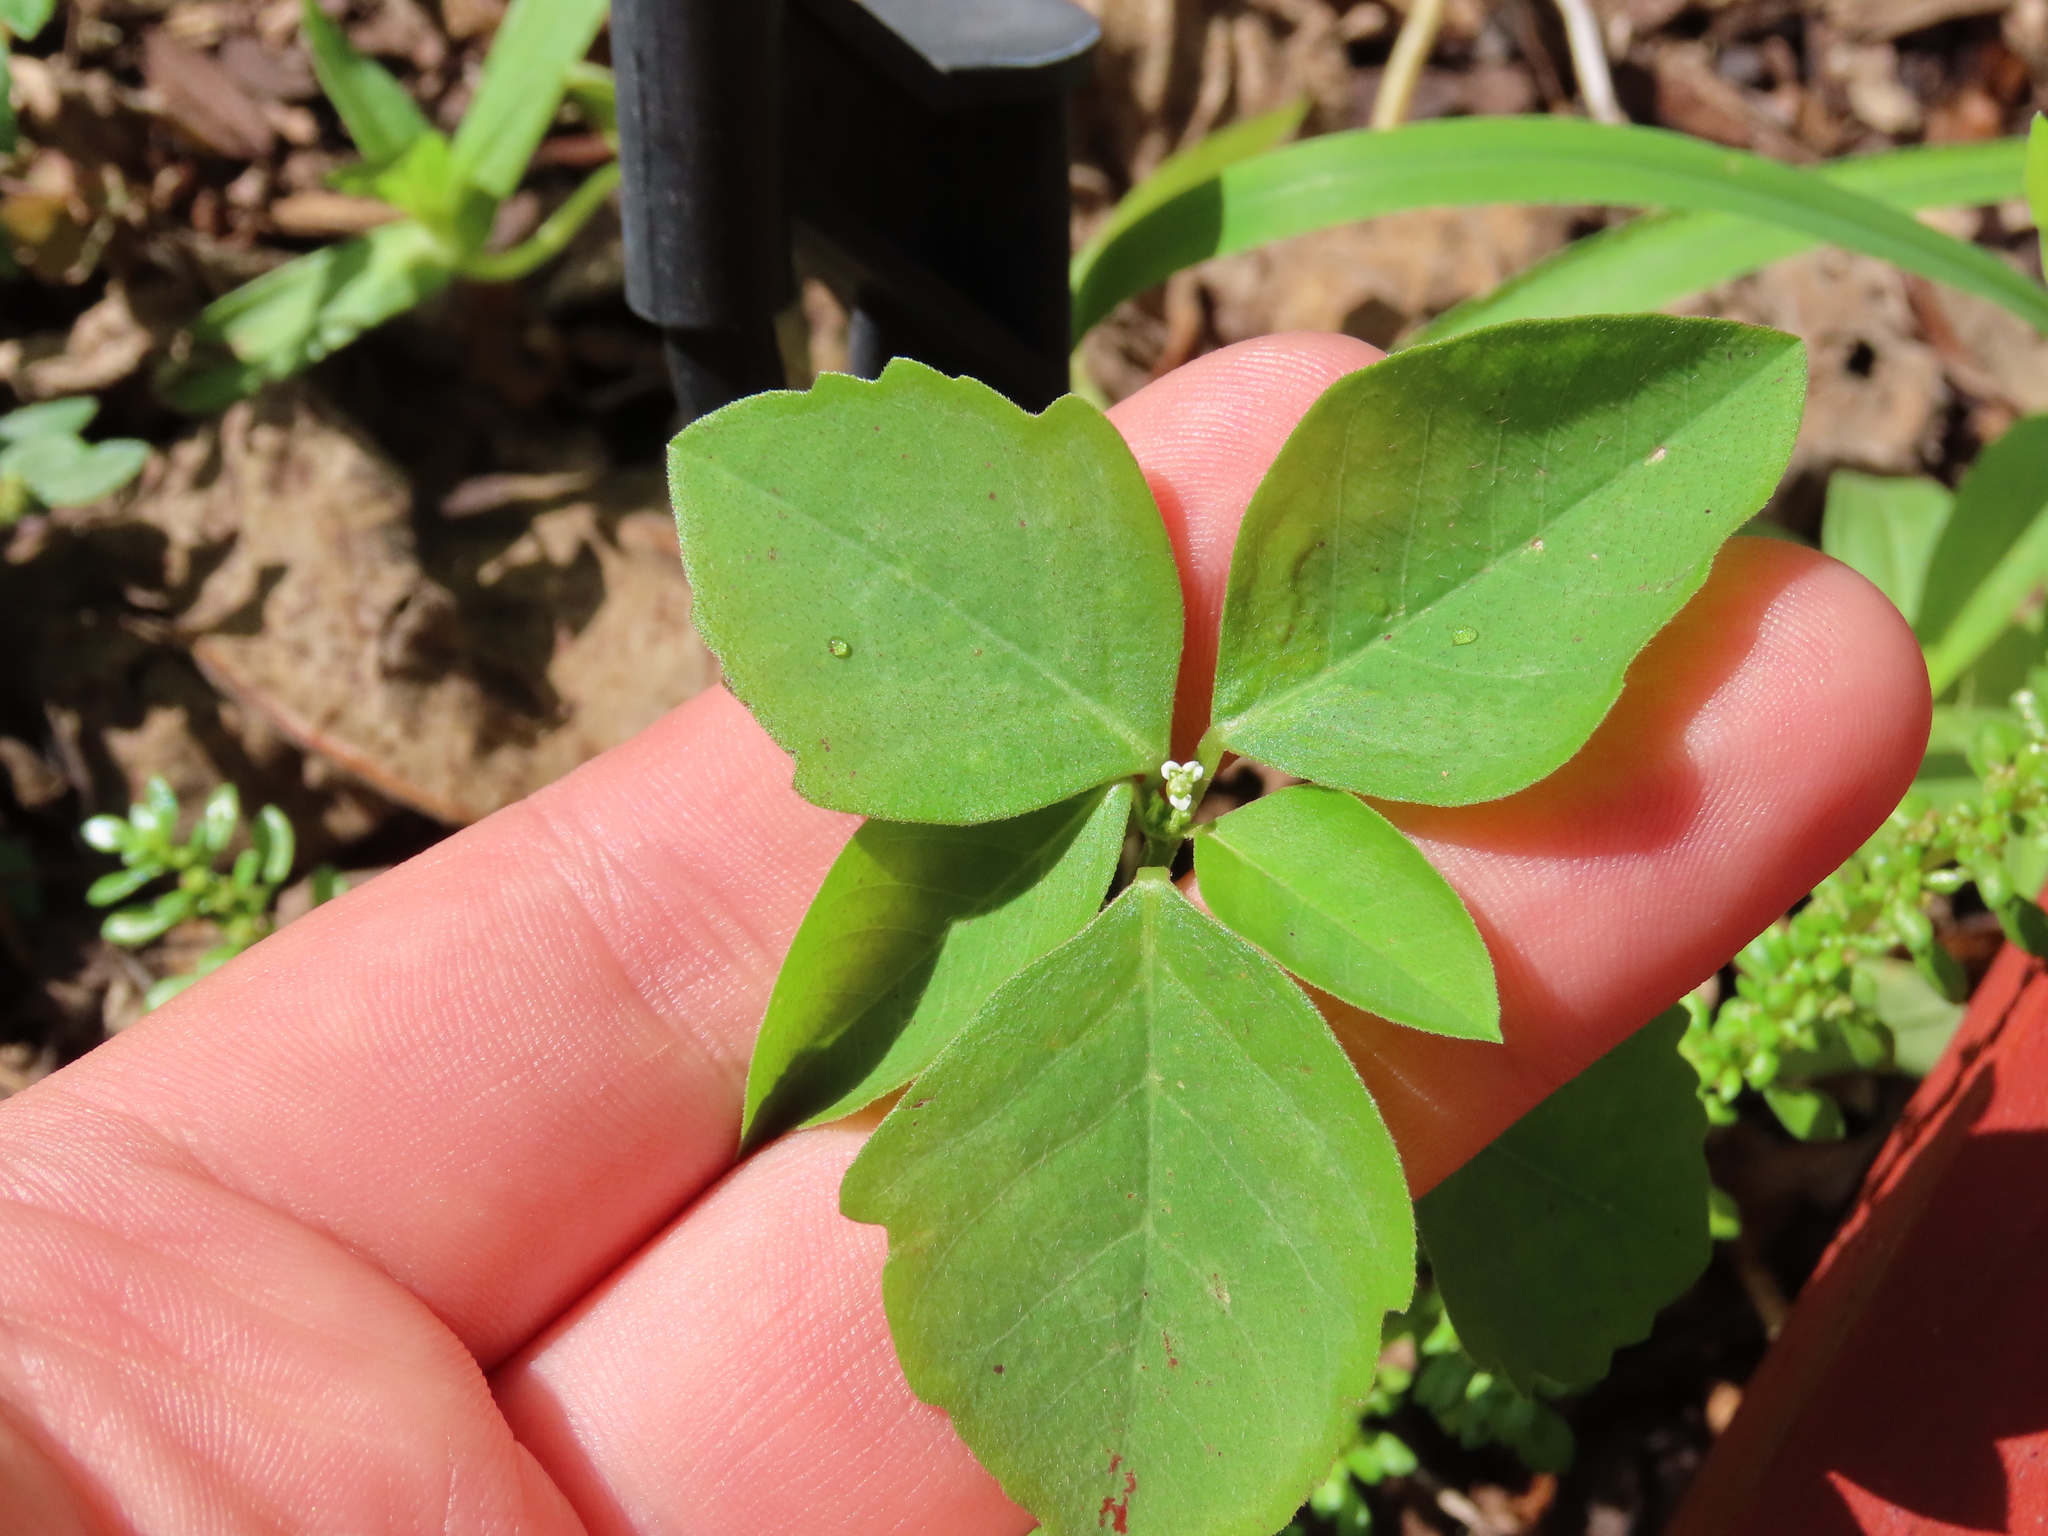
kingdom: Plantae
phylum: Tracheophyta
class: Magnoliopsida
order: Malpighiales
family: Euphorbiaceae
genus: Euphorbia
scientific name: Euphorbia graminea
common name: Grassleaf spurge
